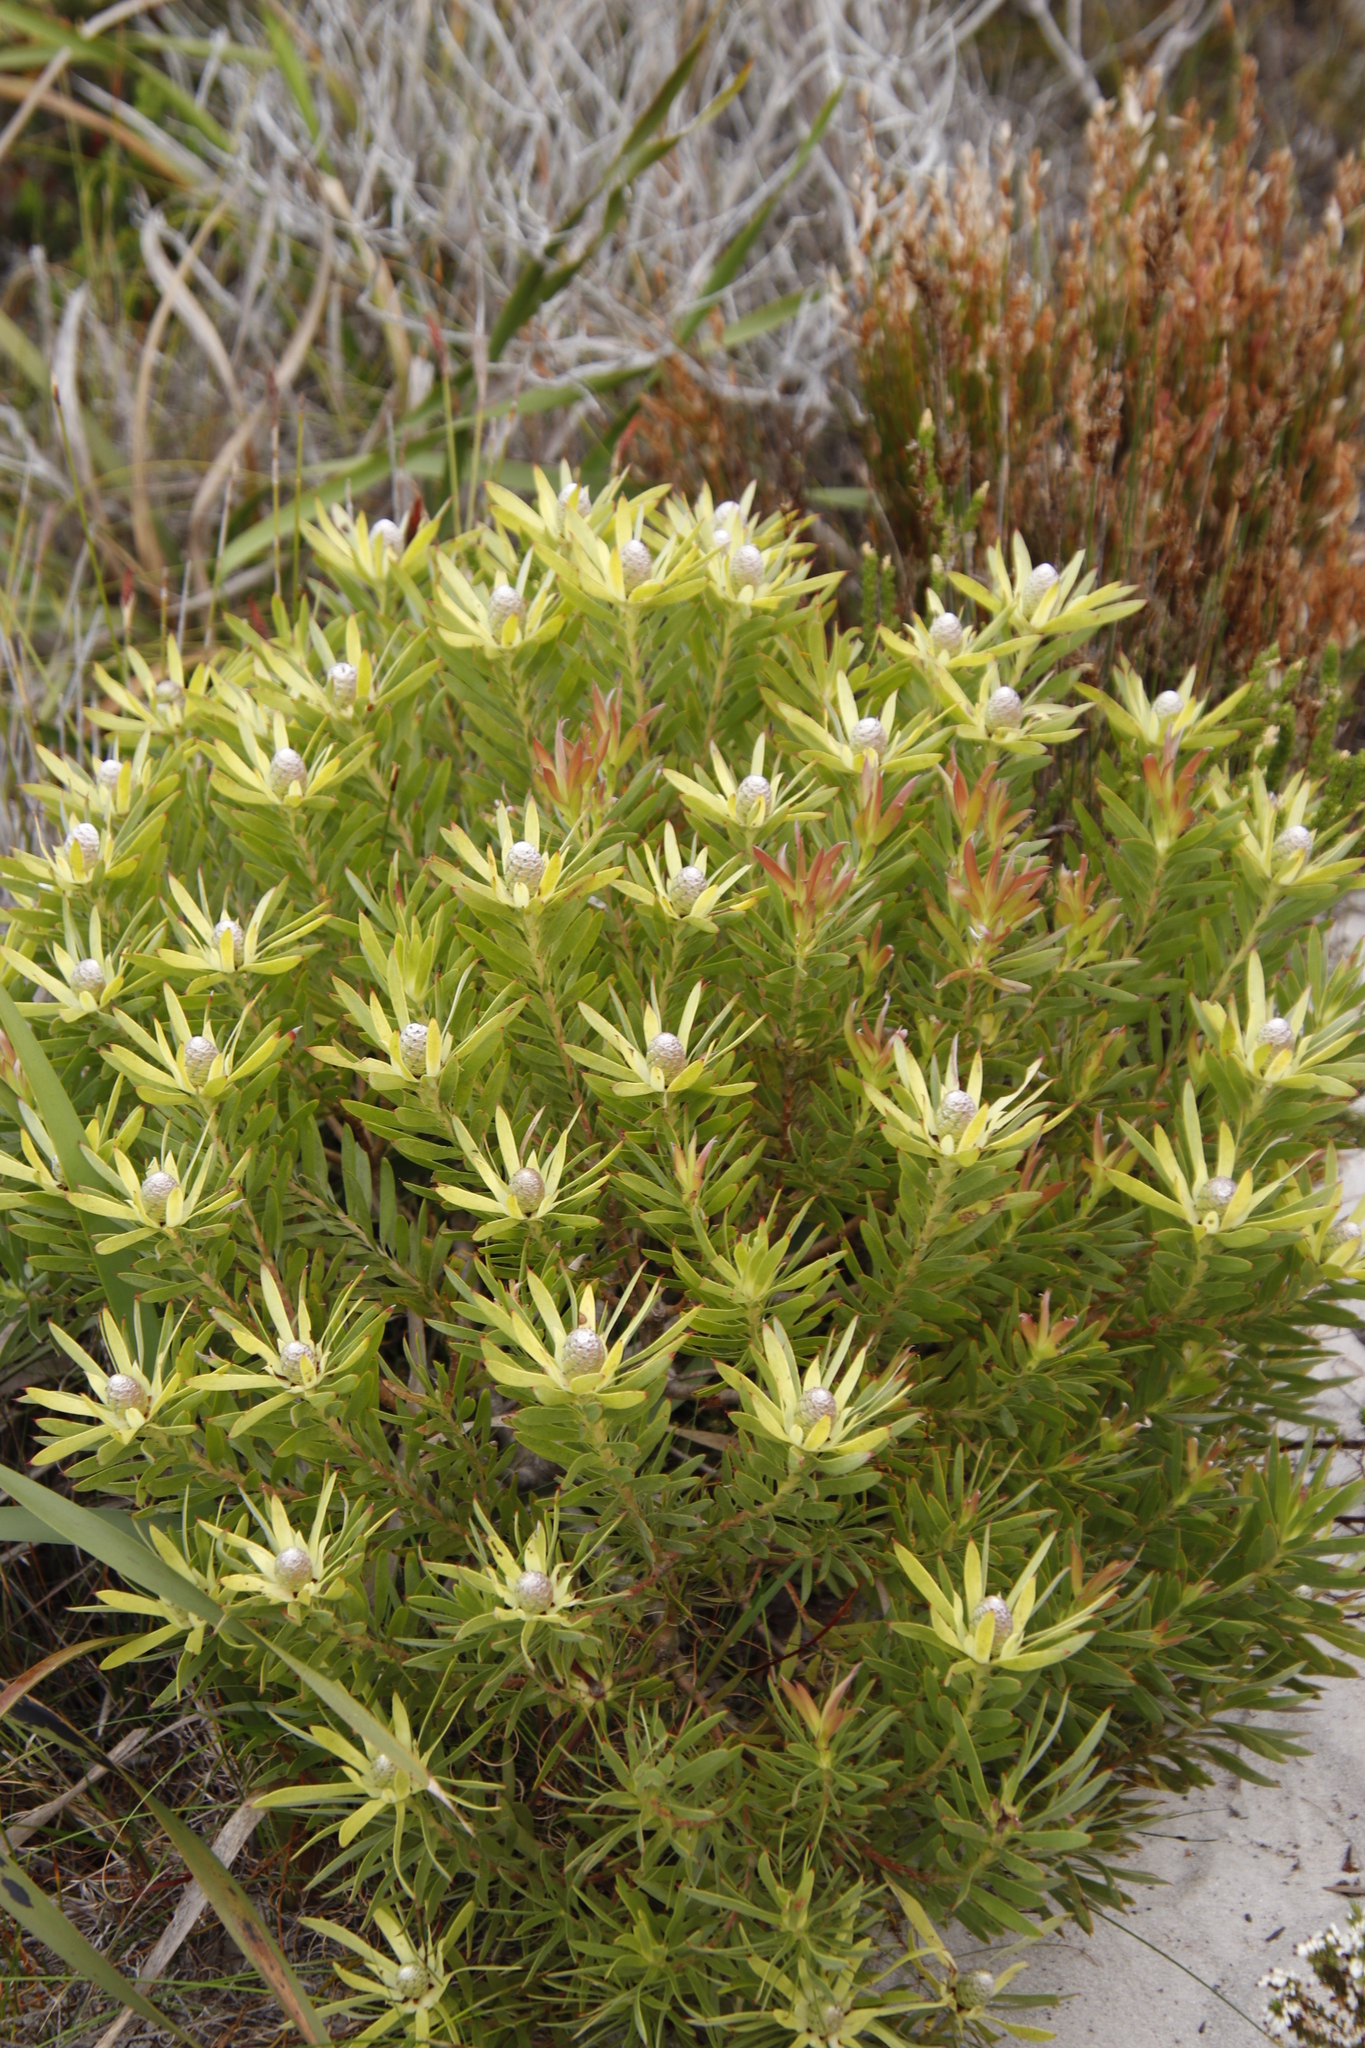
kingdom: Plantae
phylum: Tracheophyta
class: Magnoliopsida
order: Proteales
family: Proteaceae
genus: Leucadendron
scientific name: Leucadendron xanthoconus
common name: Sickle-leaf conebush
